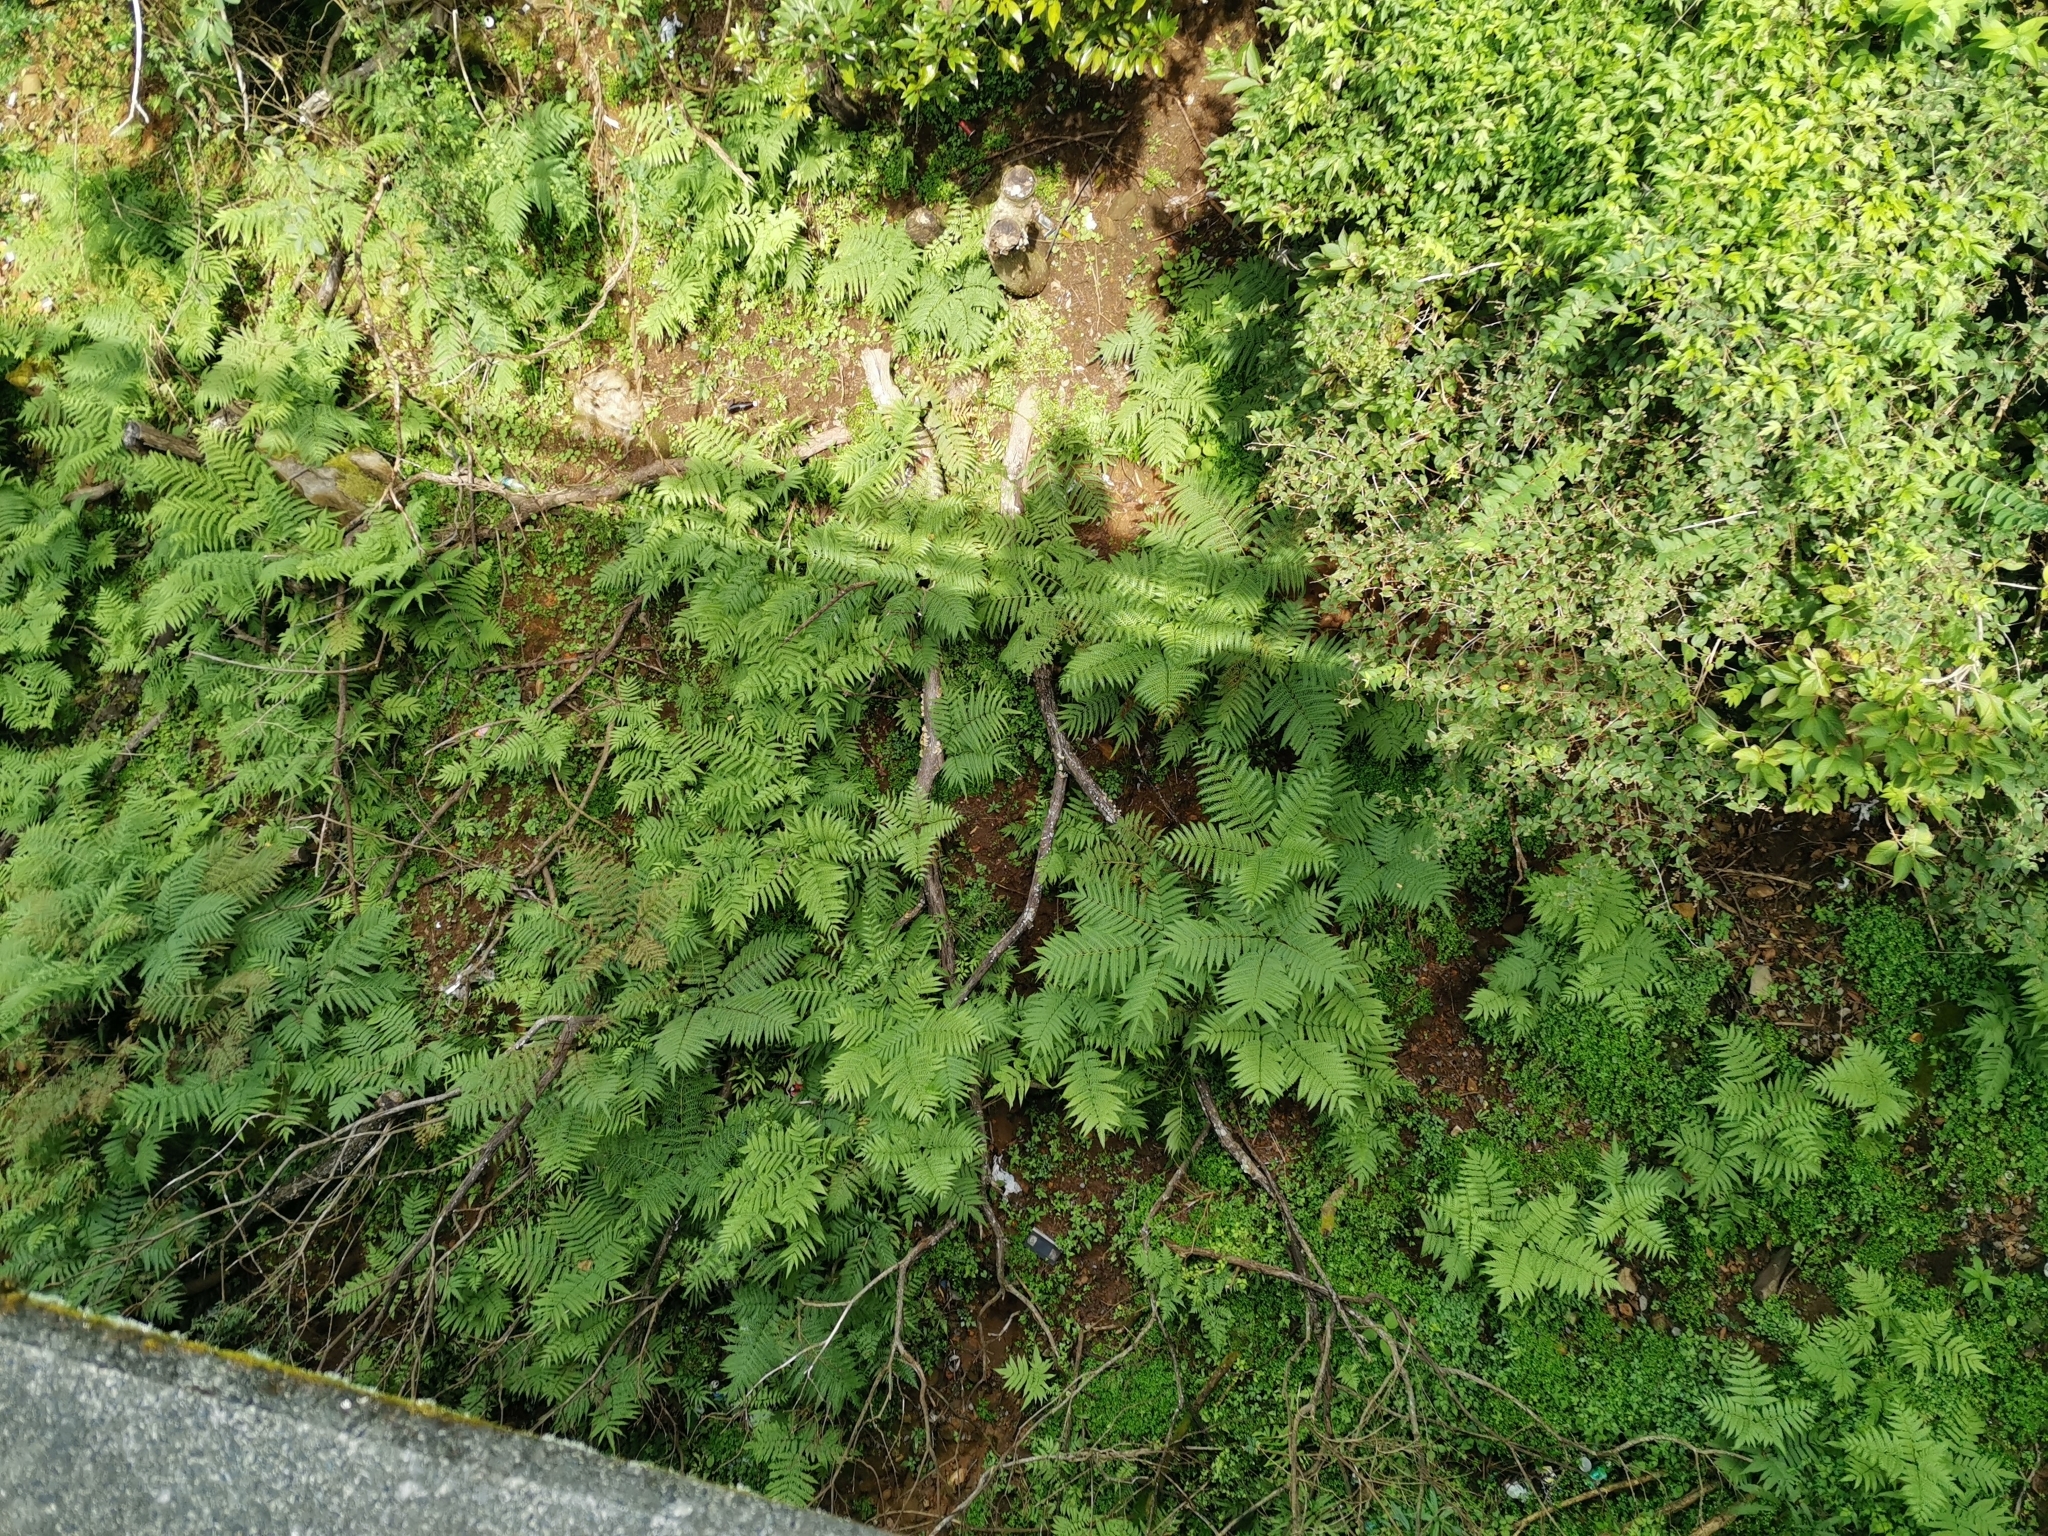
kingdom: Plantae
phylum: Tracheophyta
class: Polypodiopsida
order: Polypodiales
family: Pteridaceae
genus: Pteris
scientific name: Pteris wallichiana
